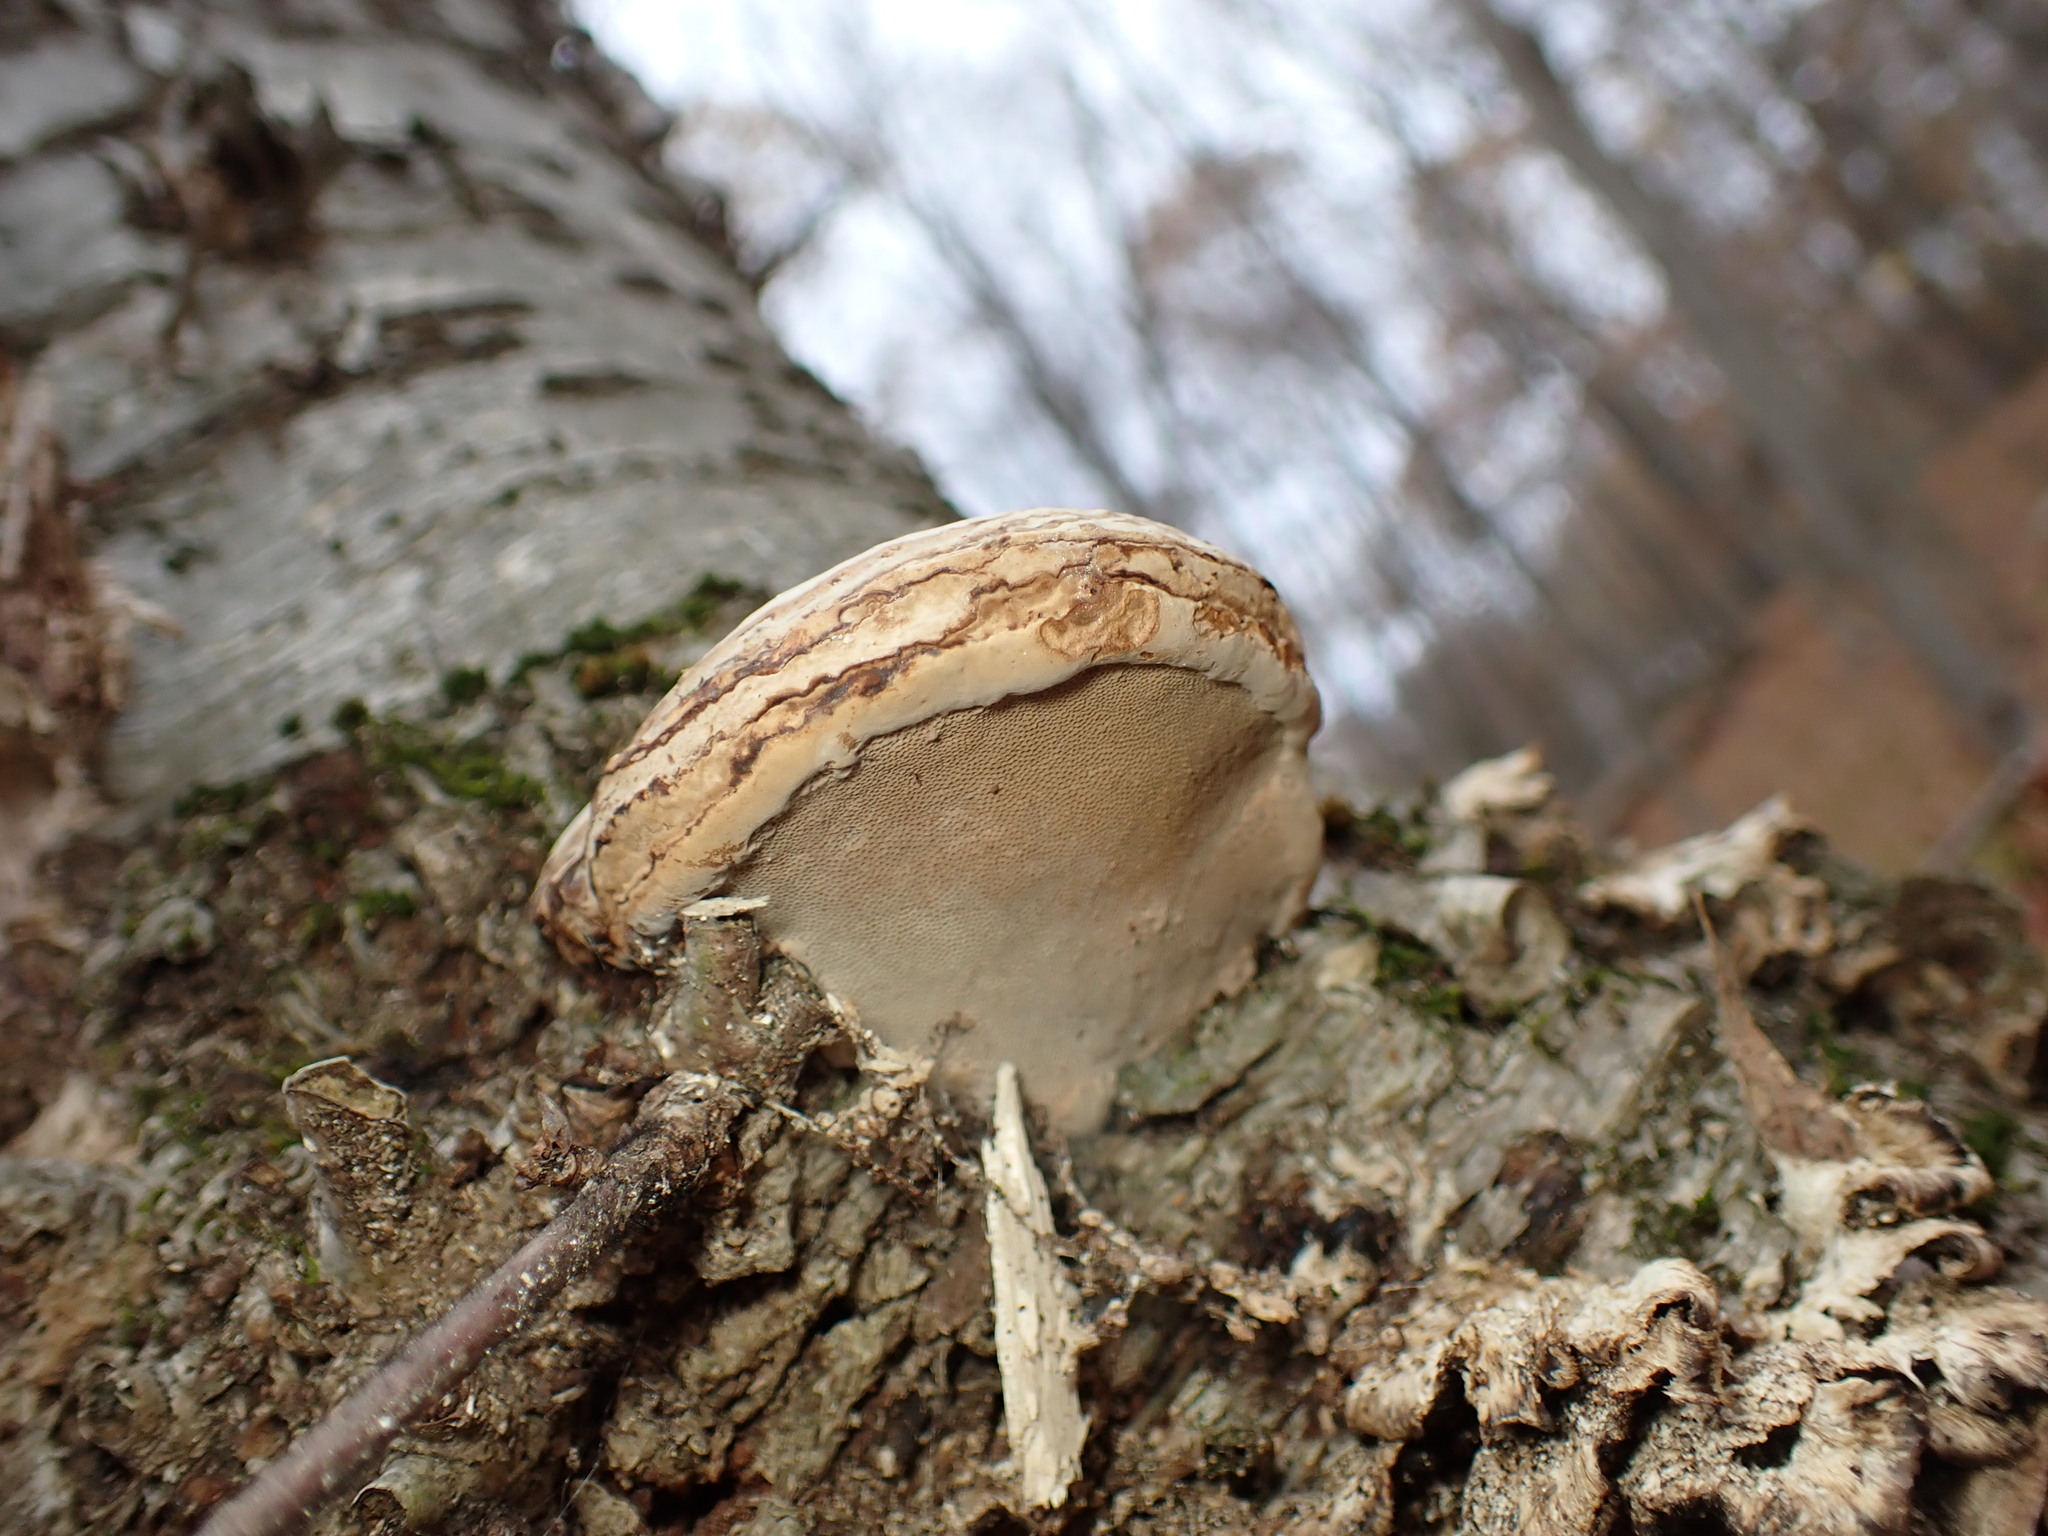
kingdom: Fungi
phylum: Basidiomycota
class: Agaricomycetes
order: Polyporales
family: Polyporaceae
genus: Fomes
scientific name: Fomes fomentarius
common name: Hoof fungus
